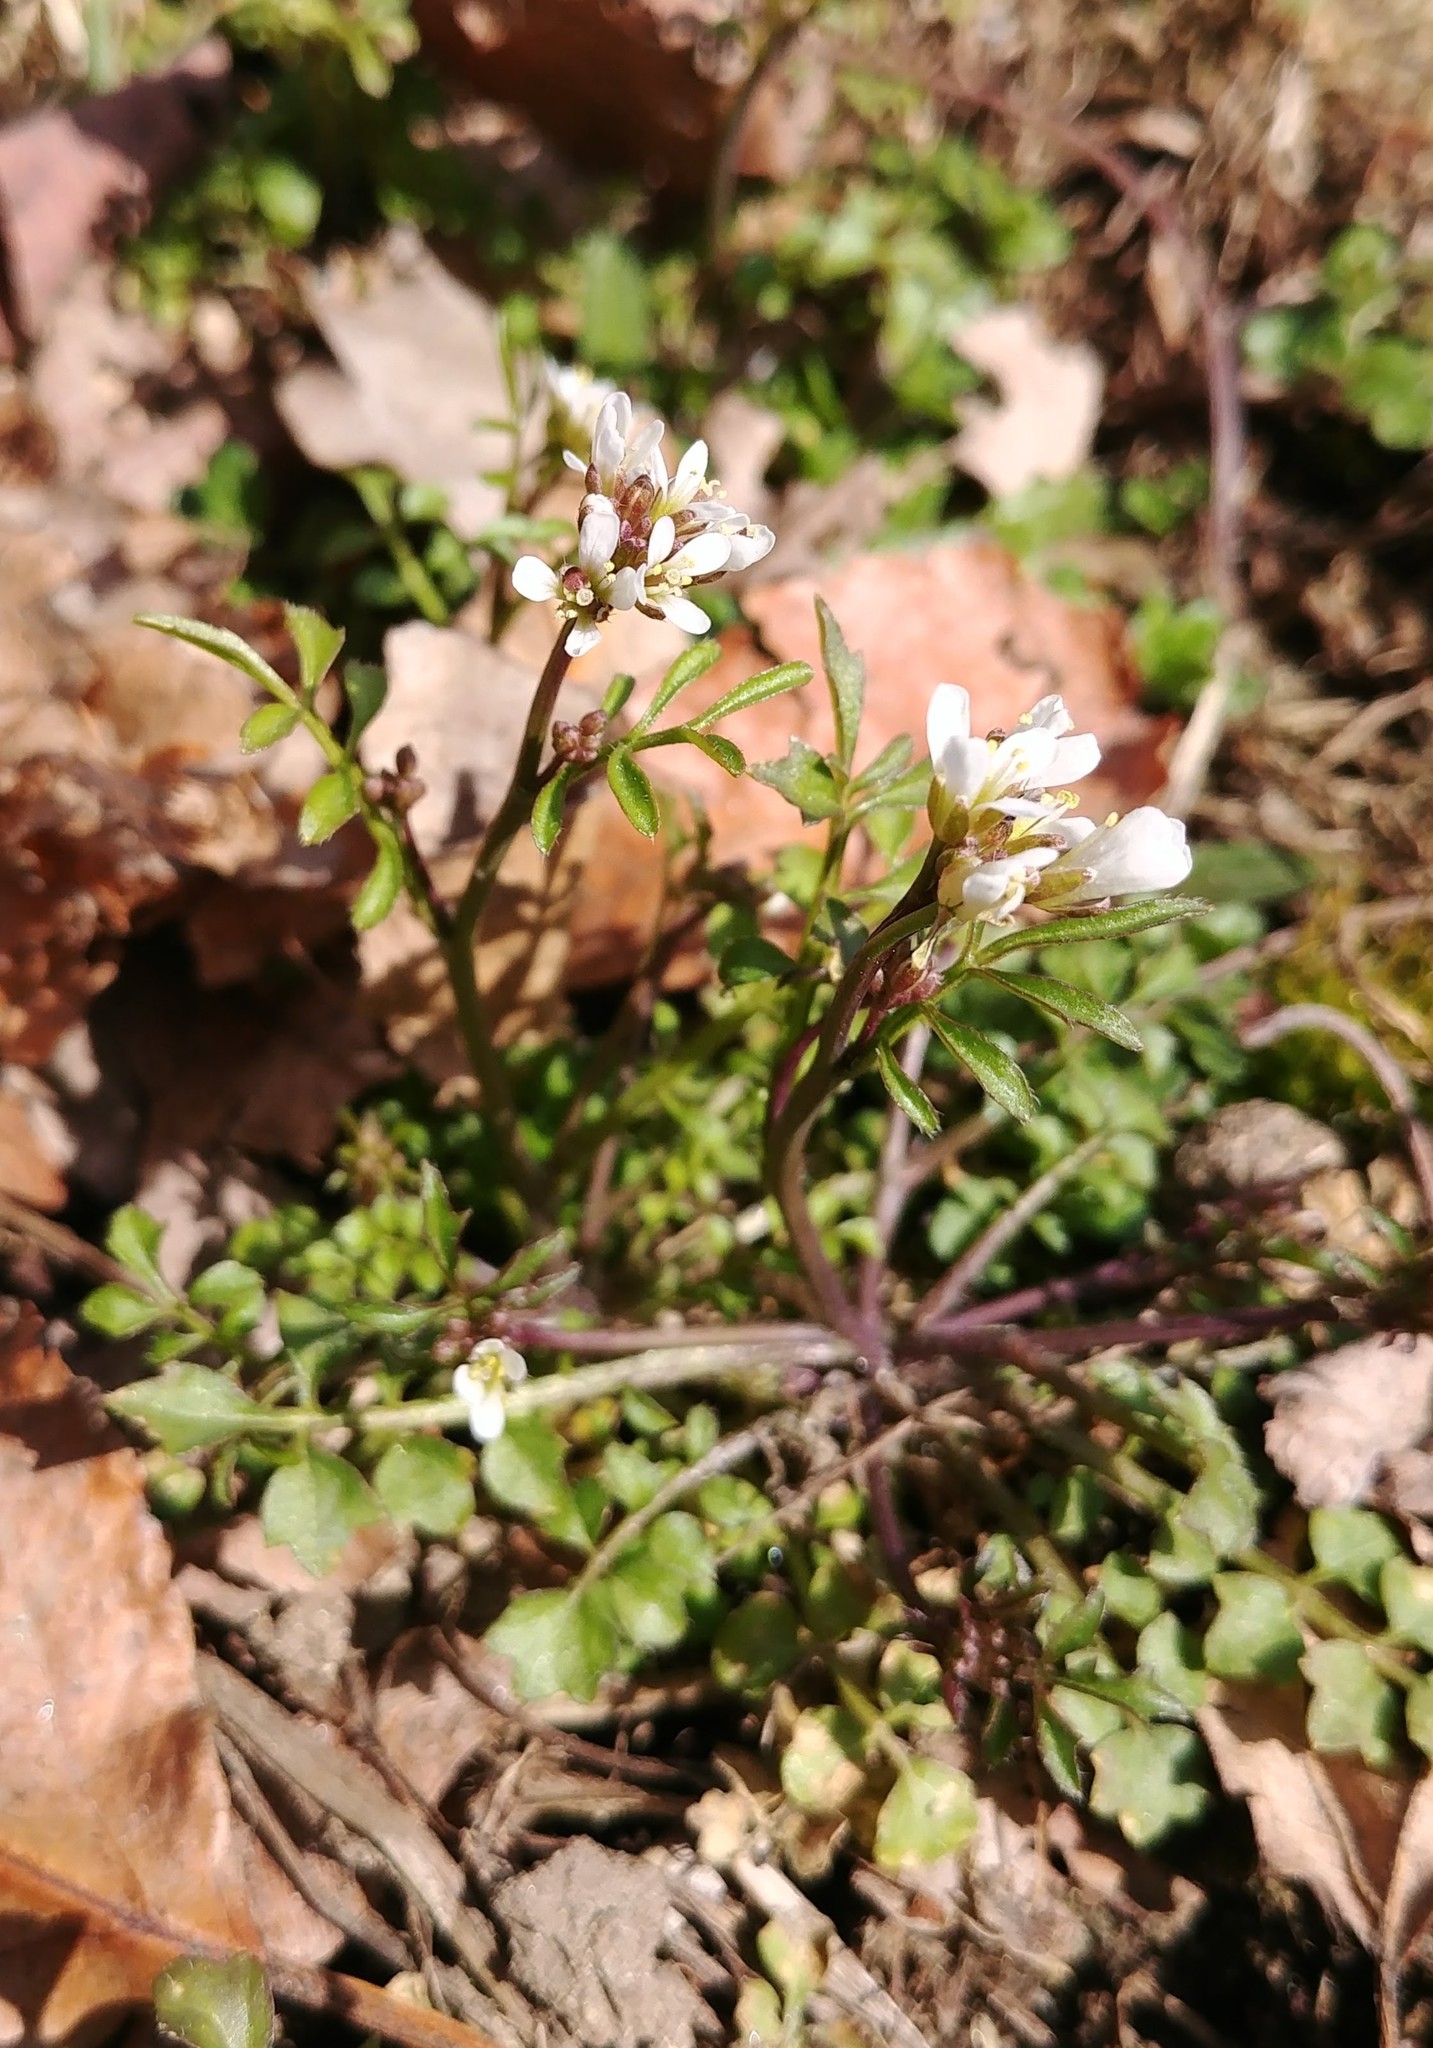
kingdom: Plantae
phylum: Tracheophyta
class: Magnoliopsida
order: Brassicales
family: Brassicaceae
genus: Cardamine
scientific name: Cardamine hirsuta
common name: Hairy bittercress
